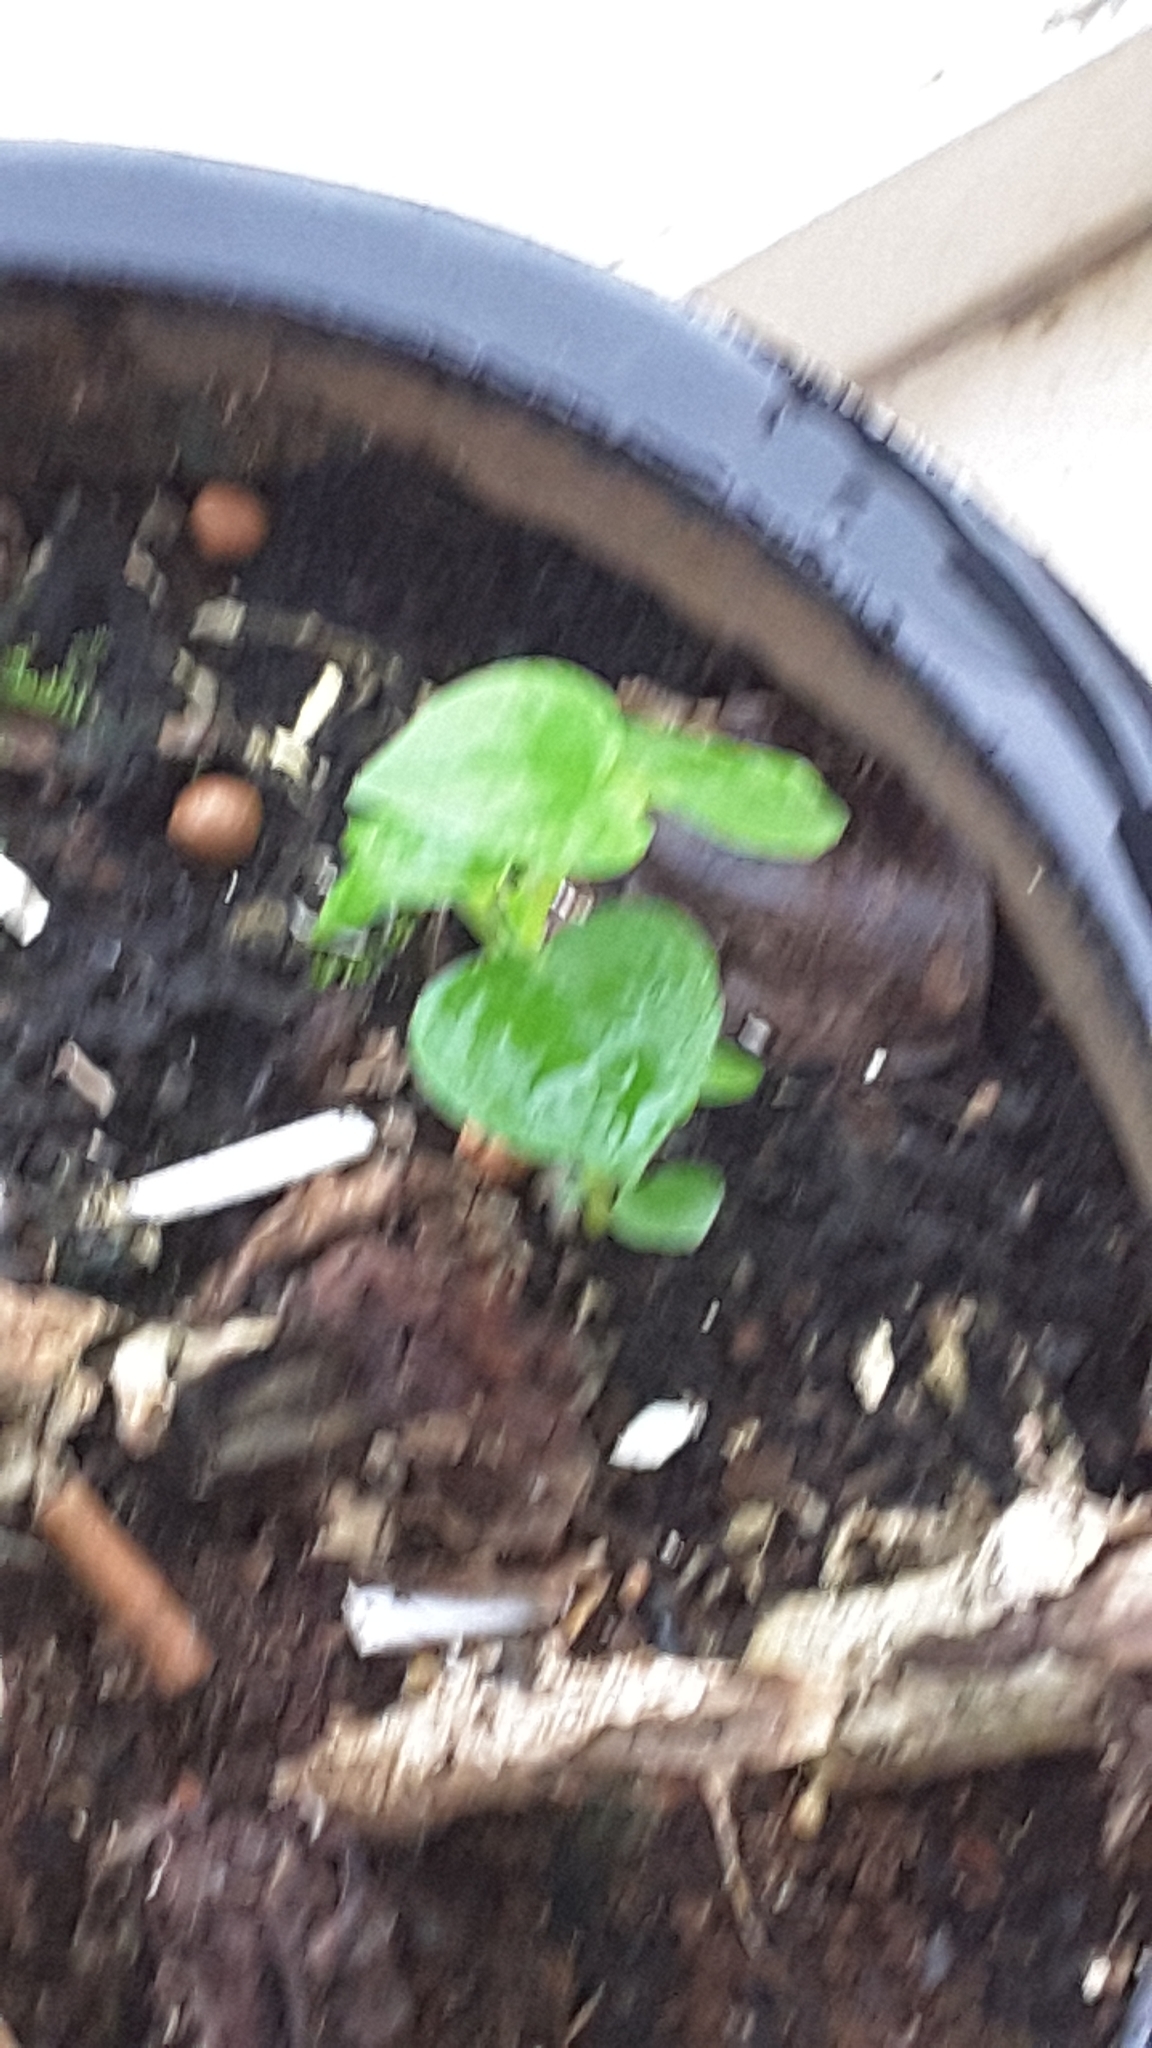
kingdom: Plantae
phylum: Tracheophyta
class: Magnoliopsida
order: Piperales
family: Piperaceae
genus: Peperomia
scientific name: Peperomia pellucida
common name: Man to man
